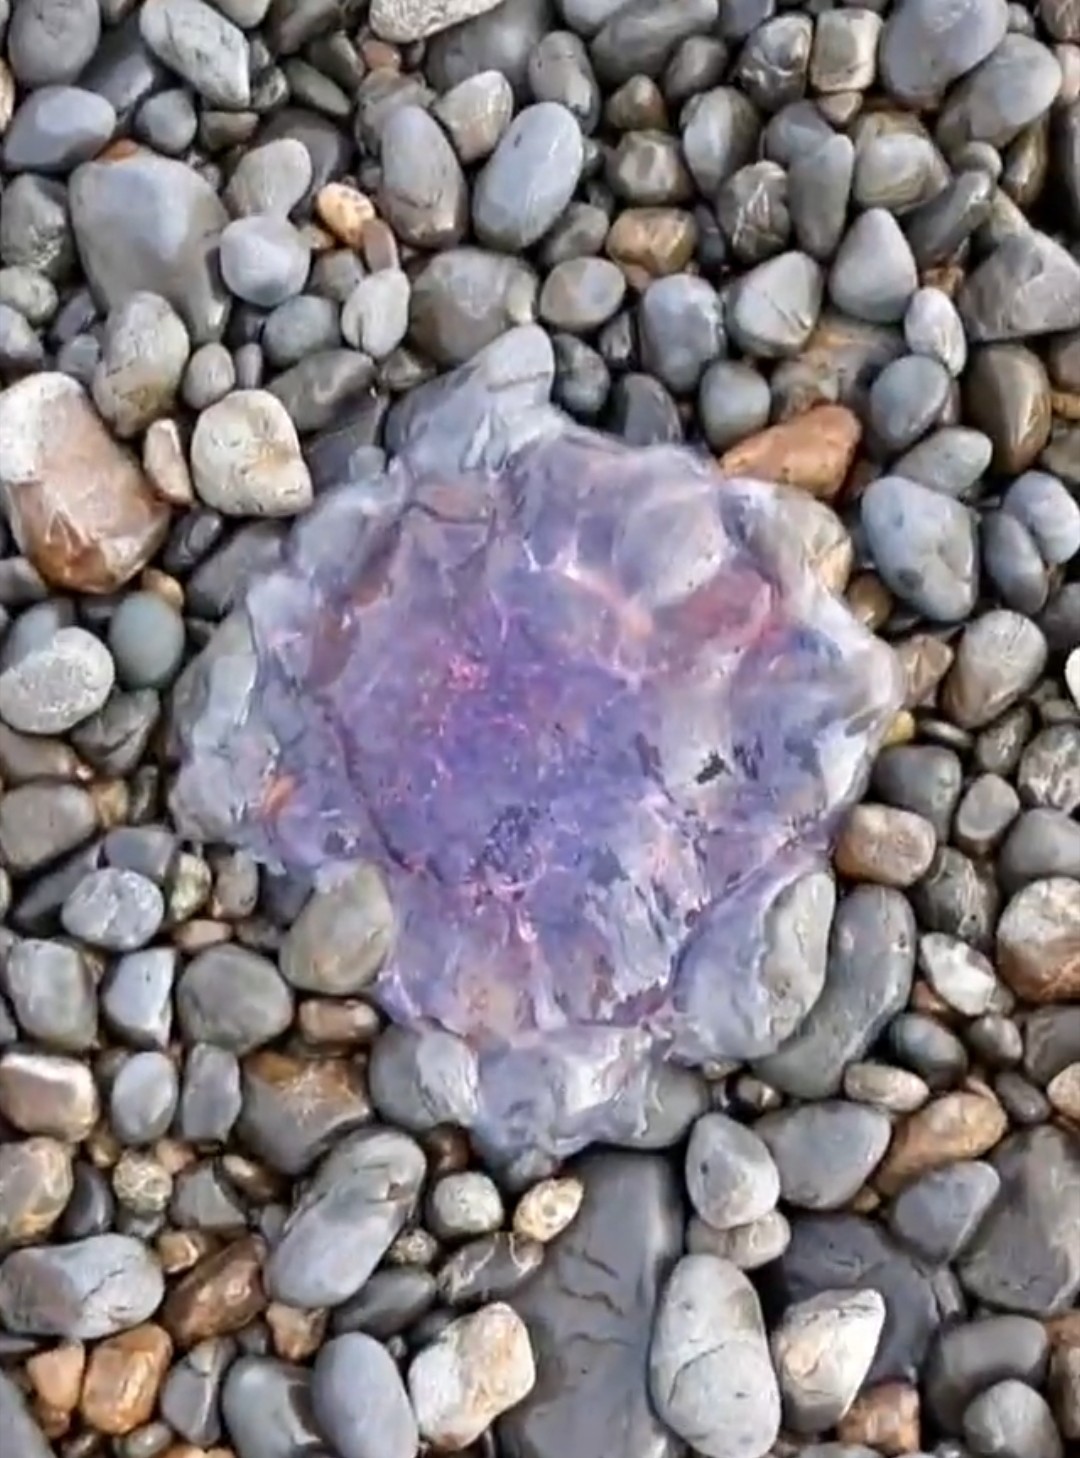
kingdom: Animalia
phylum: Cnidaria
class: Scyphozoa
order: Semaeostomeae
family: Cyaneidae
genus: Cyanea
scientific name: Cyanea
